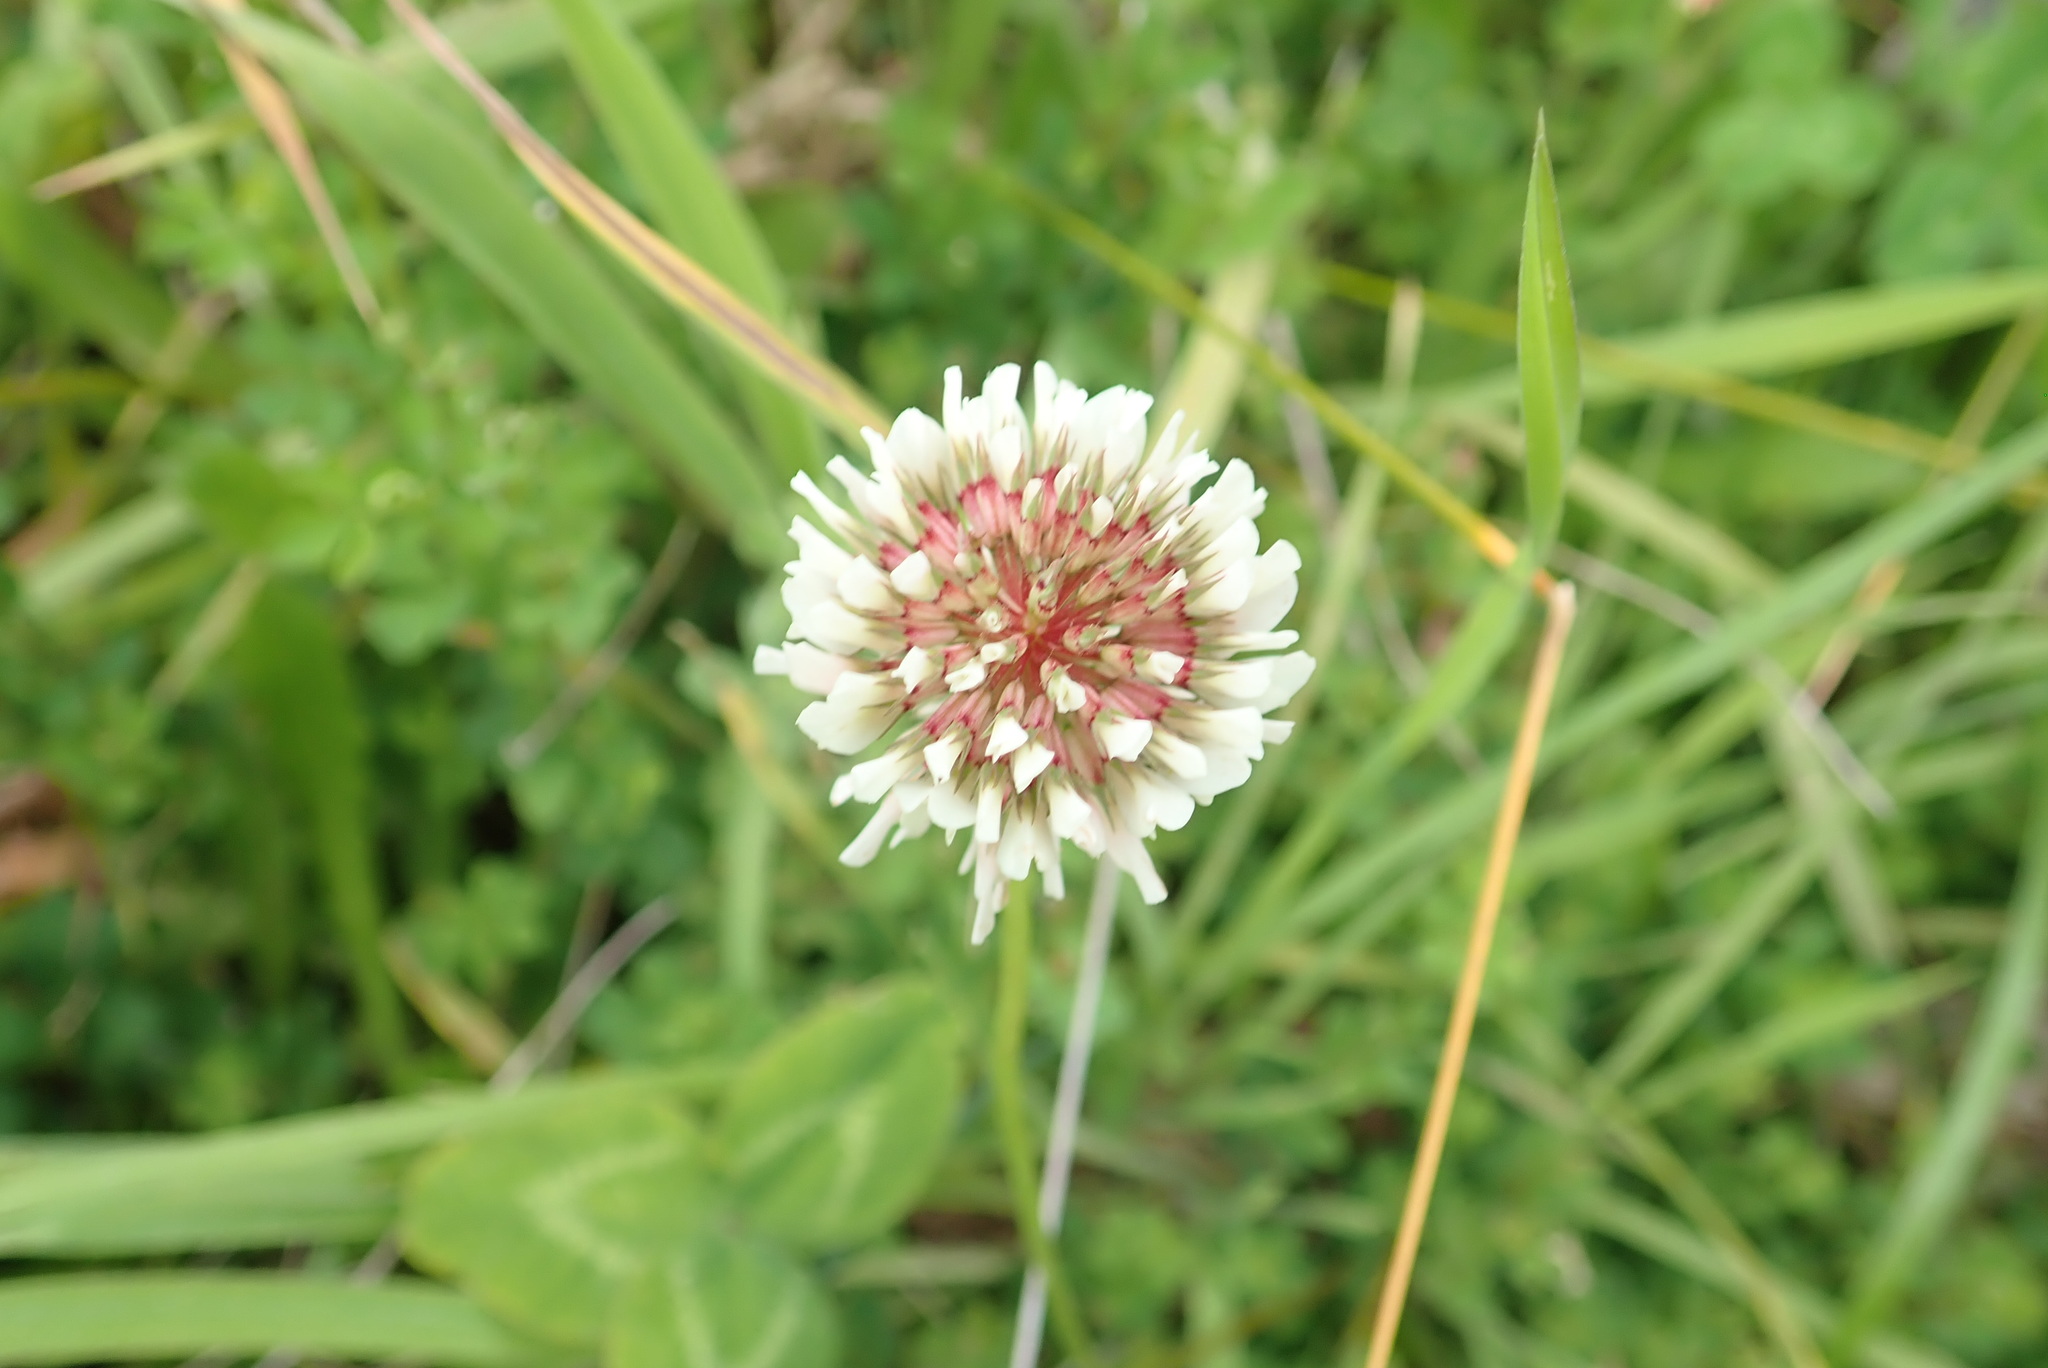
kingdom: Plantae
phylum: Tracheophyta
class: Magnoliopsida
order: Fabales
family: Fabaceae
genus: Trifolium
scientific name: Trifolium repens
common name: White clover
